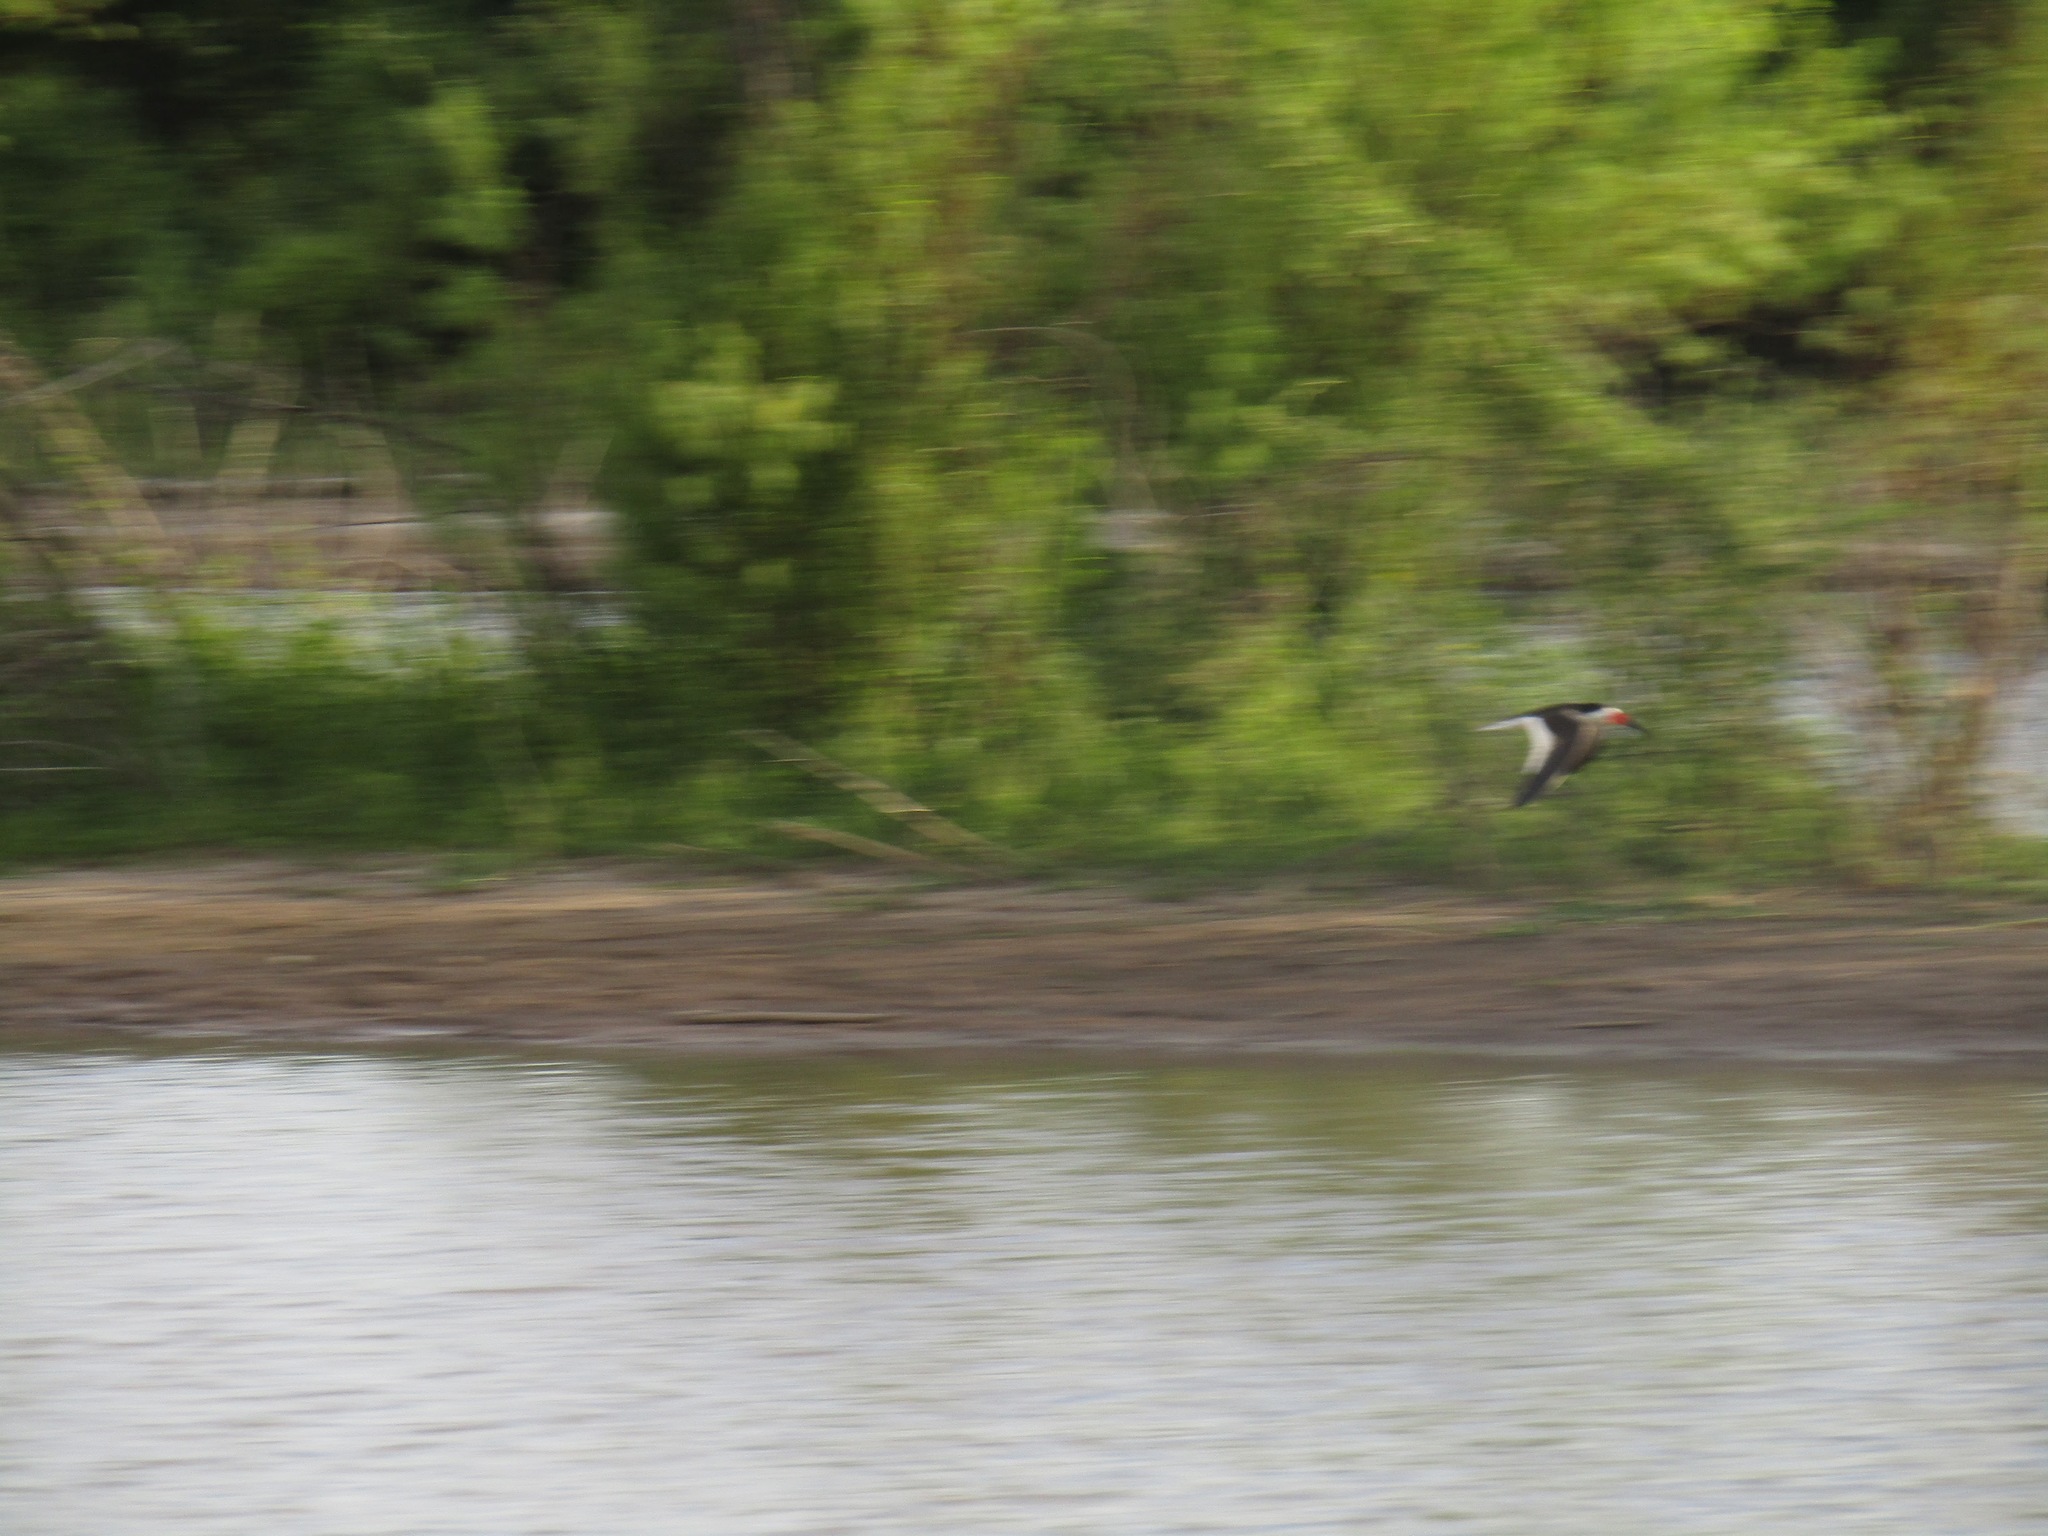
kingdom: Animalia
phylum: Chordata
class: Aves
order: Charadriiformes
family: Laridae
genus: Rynchops
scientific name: Rynchops niger
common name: Black skimmer
